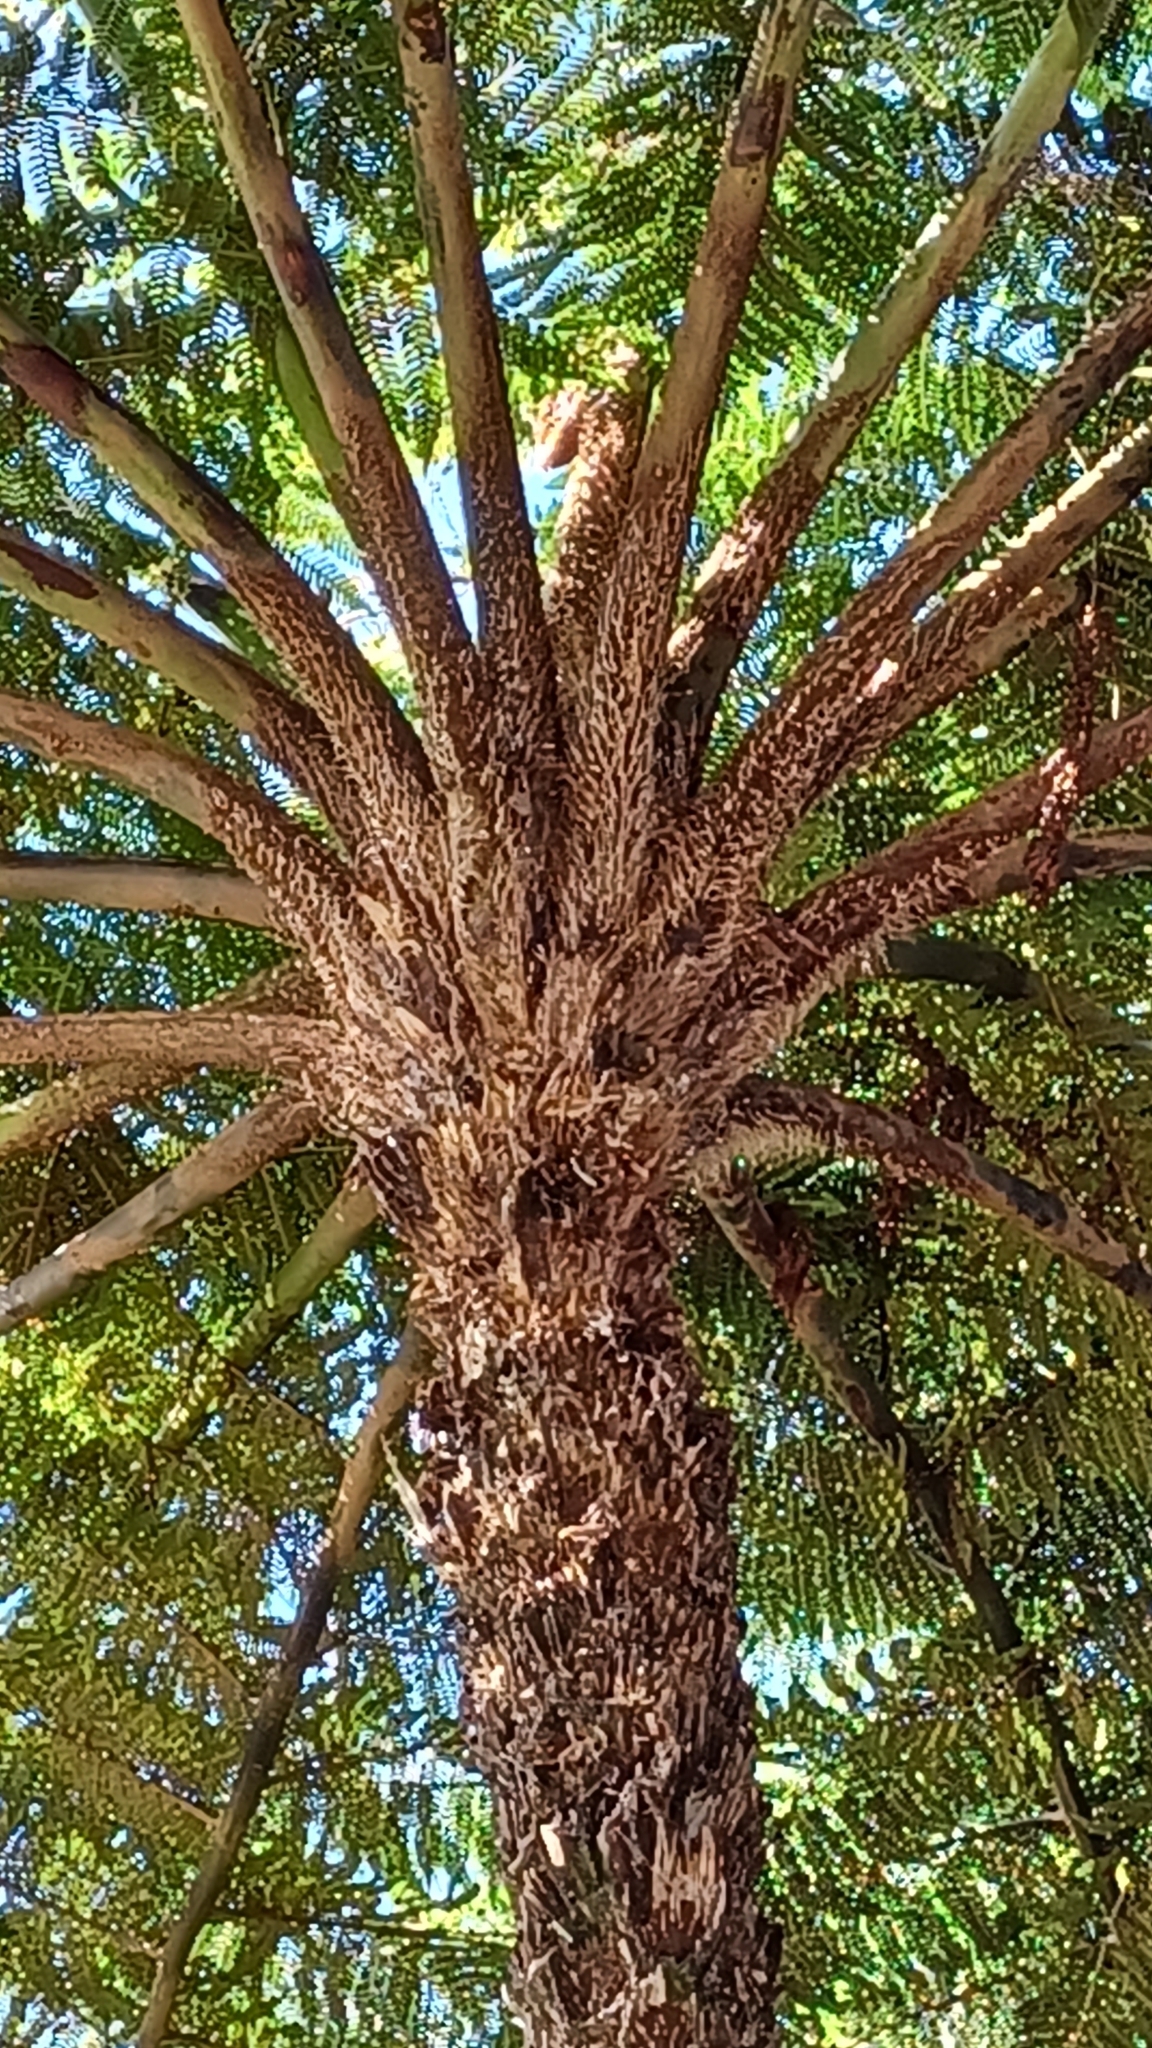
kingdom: Plantae
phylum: Tracheophyta
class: Polypodiopsida
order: Cyatheales
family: Cyatheaceae
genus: Sphaeropteris
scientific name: Sphaeropteris cooperi
